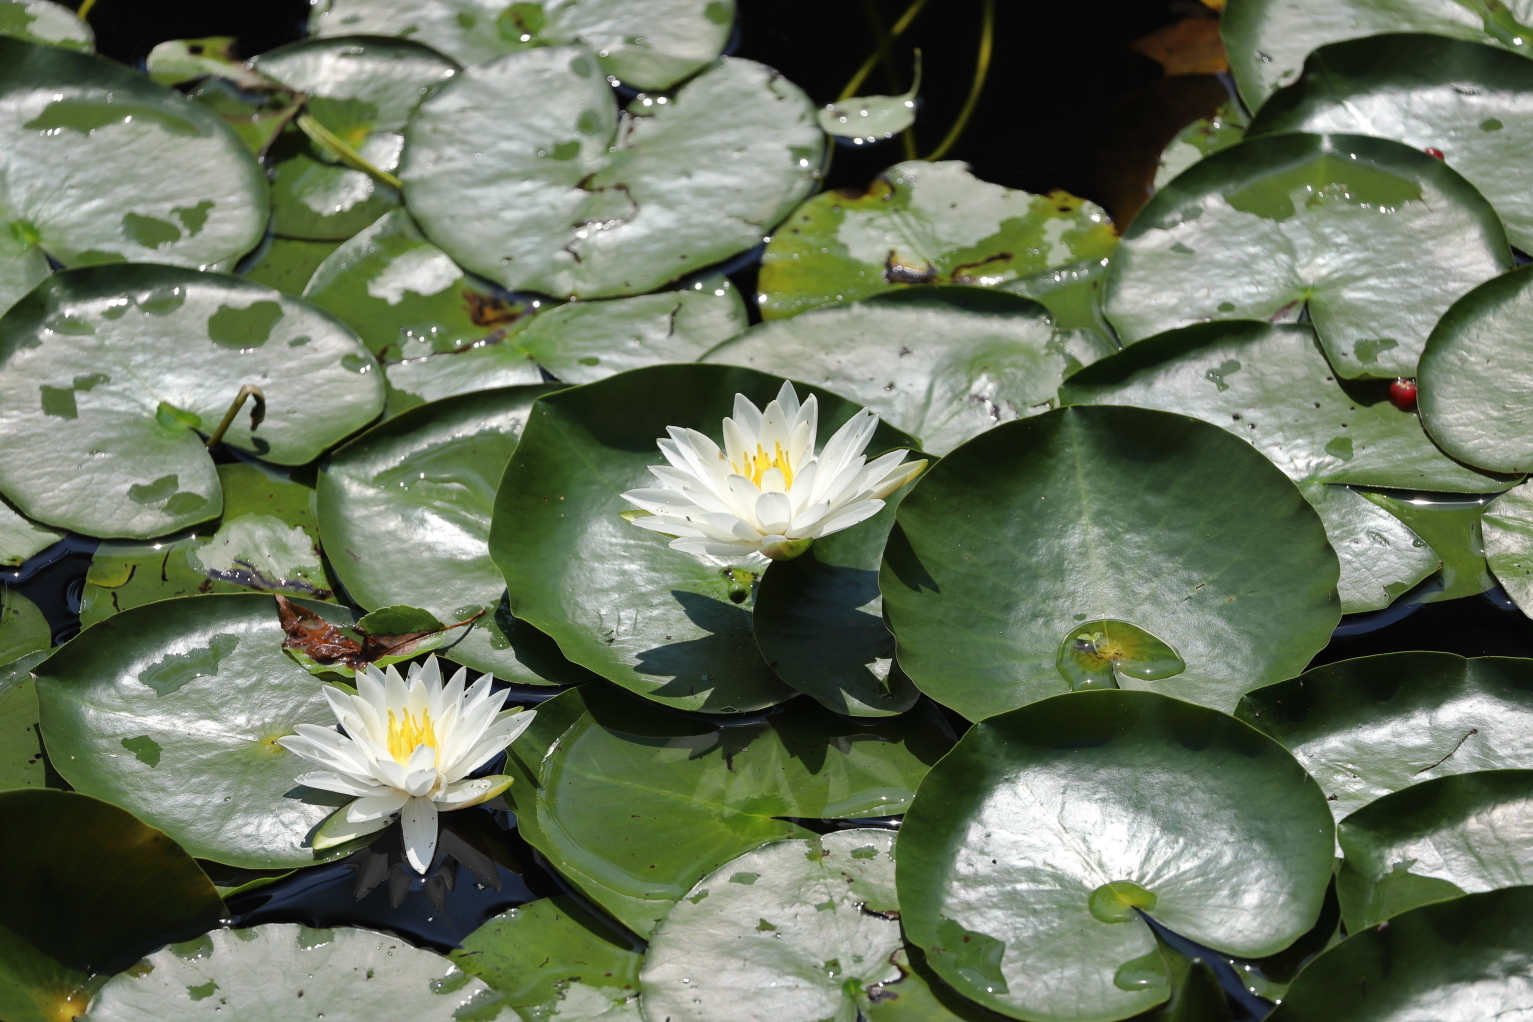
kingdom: Plantae
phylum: Tracheophyta
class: Magnoliopsida
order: Nymphaeales
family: Nymphaeaceae
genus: Nymphaea
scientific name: Nymphaea odorata
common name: Fragrant water-lily
